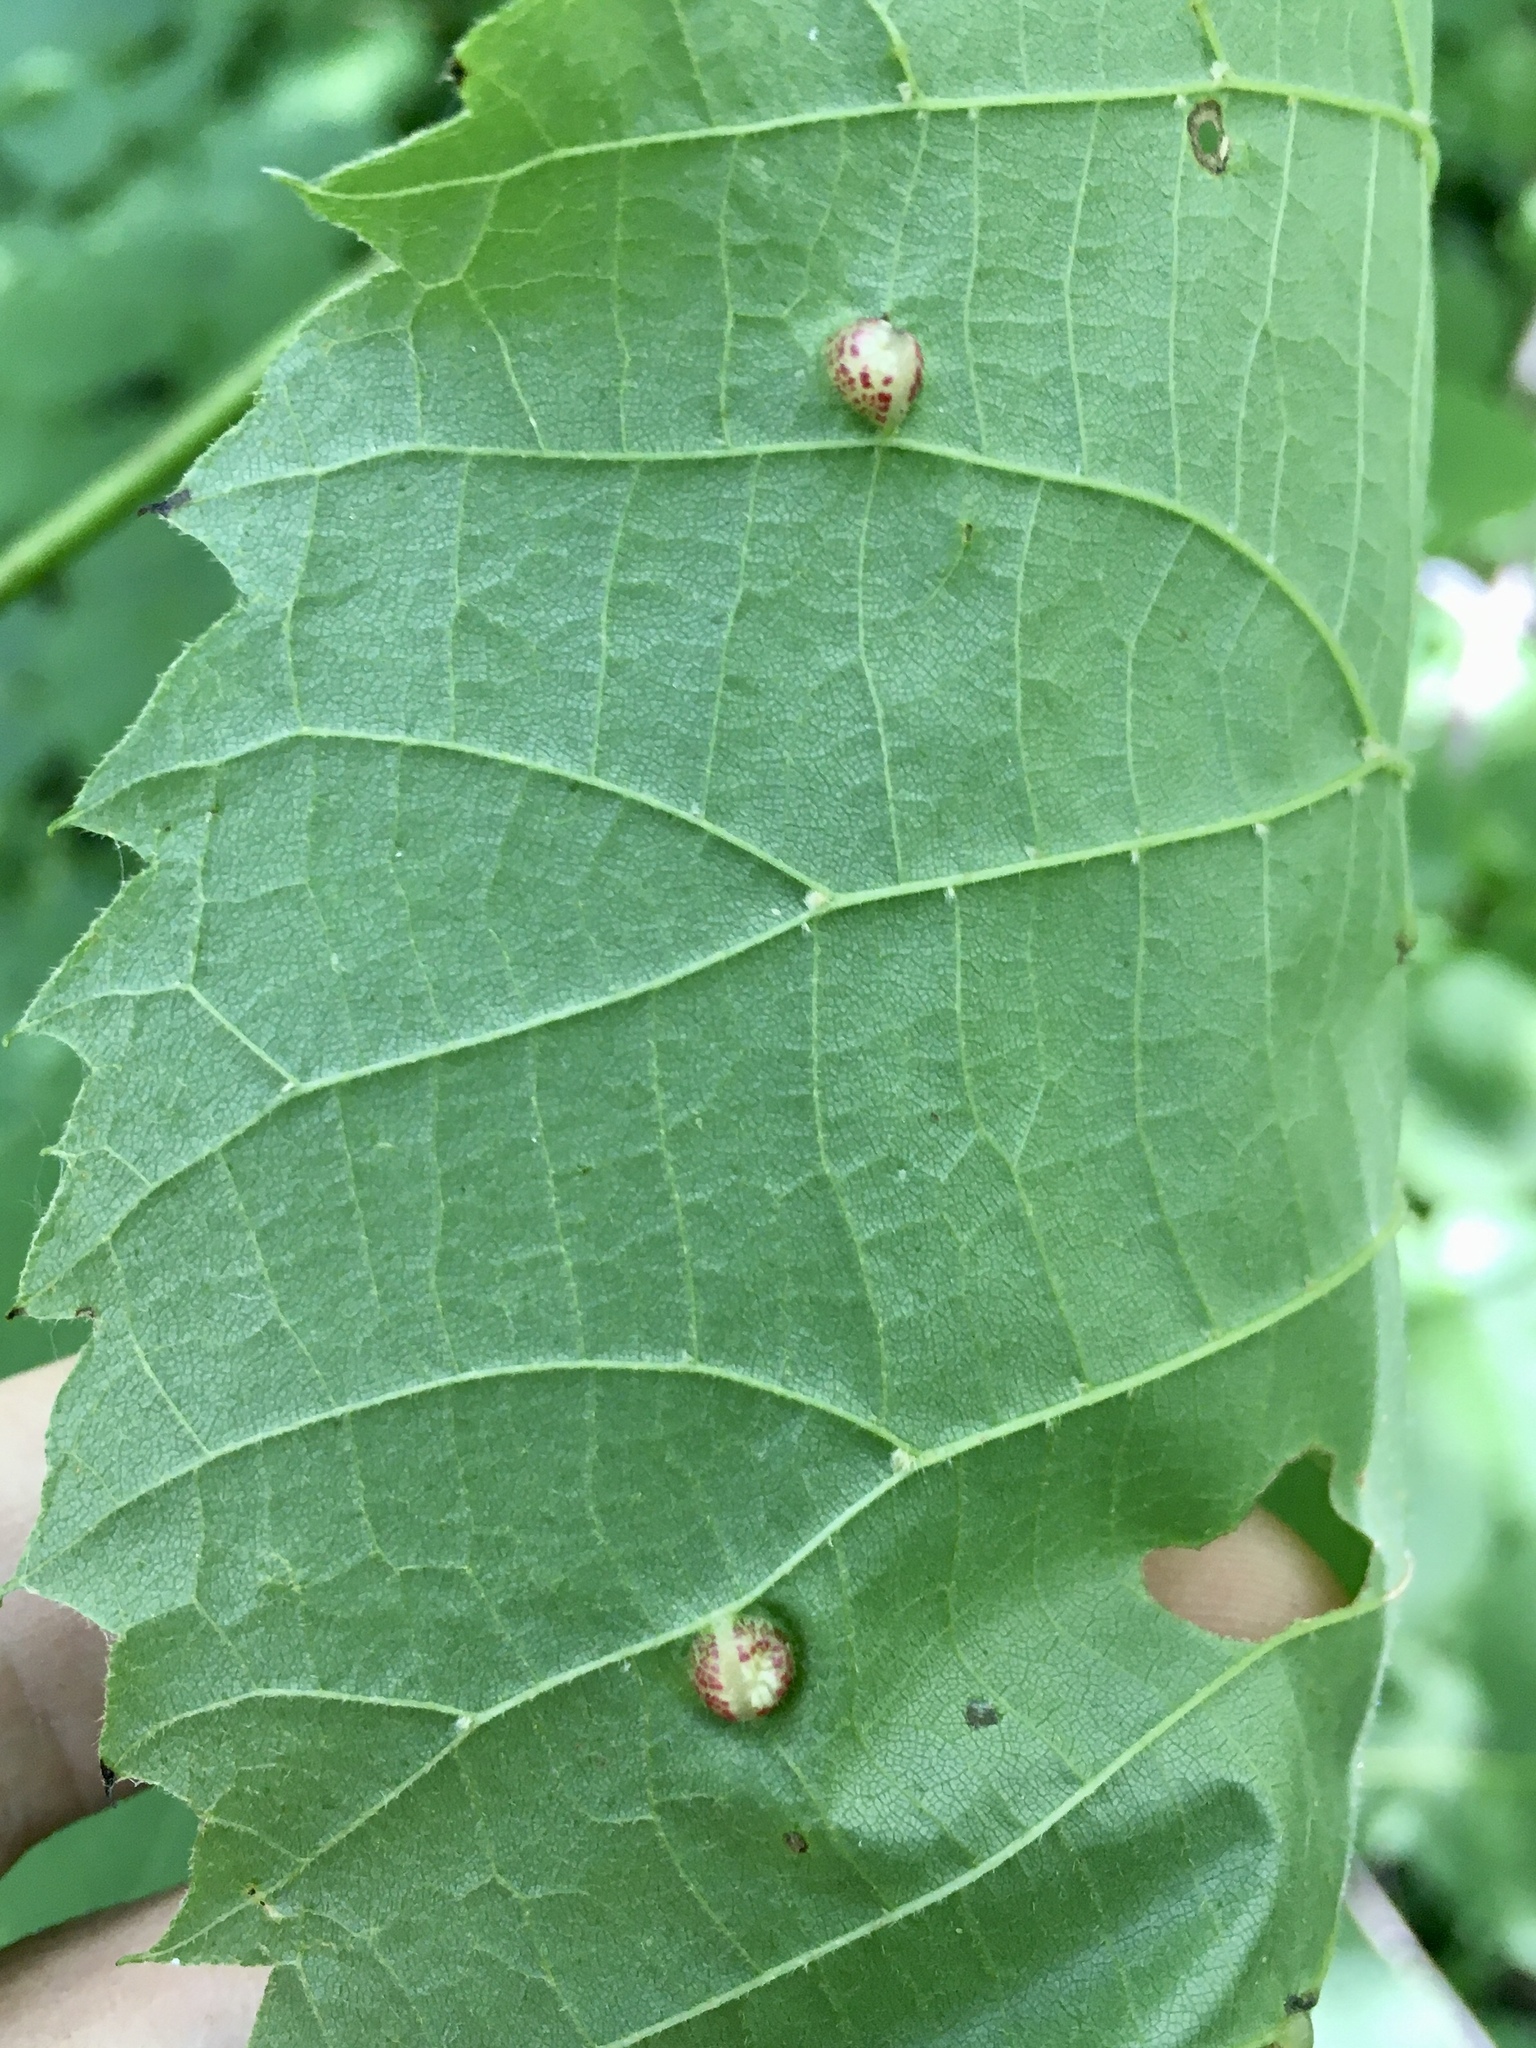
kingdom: Animalia
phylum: Arthropoda
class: Insecta
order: Diptera
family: Cecidomyiidae
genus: Contarinia
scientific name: Contarinia verrucicola
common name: Linden wart gall midge
